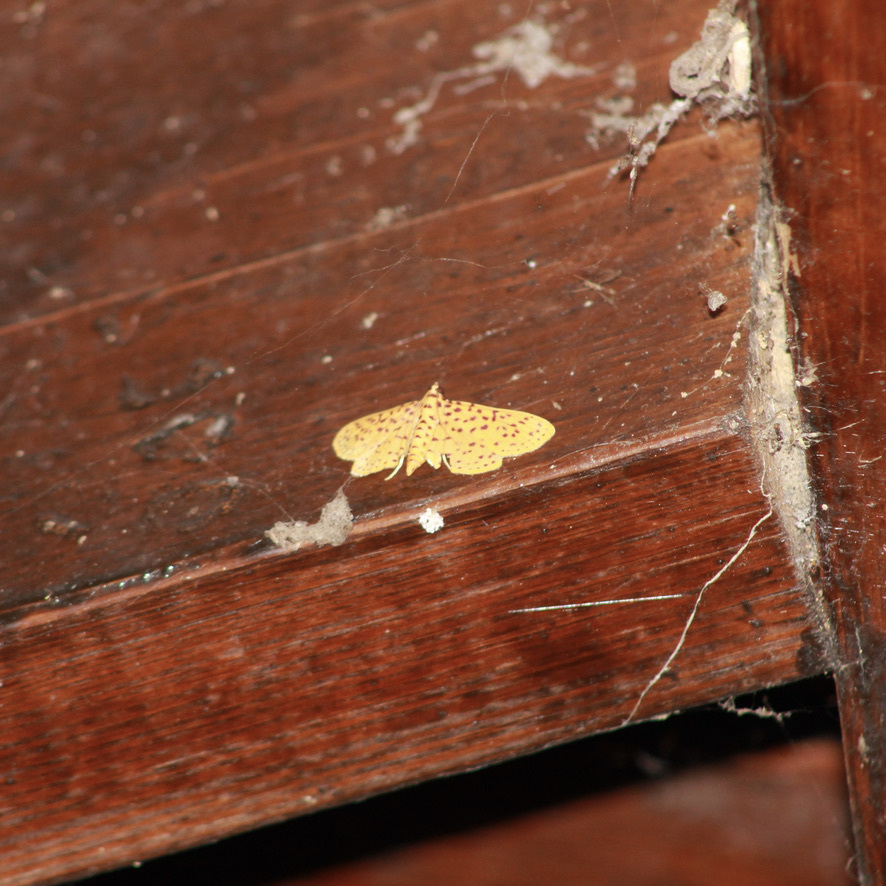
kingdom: Animalia
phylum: Arthropoda
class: Insecta
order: Lepidoptera
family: Crambidae
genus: Polygrammodes
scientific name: Polygrammodes elevata
